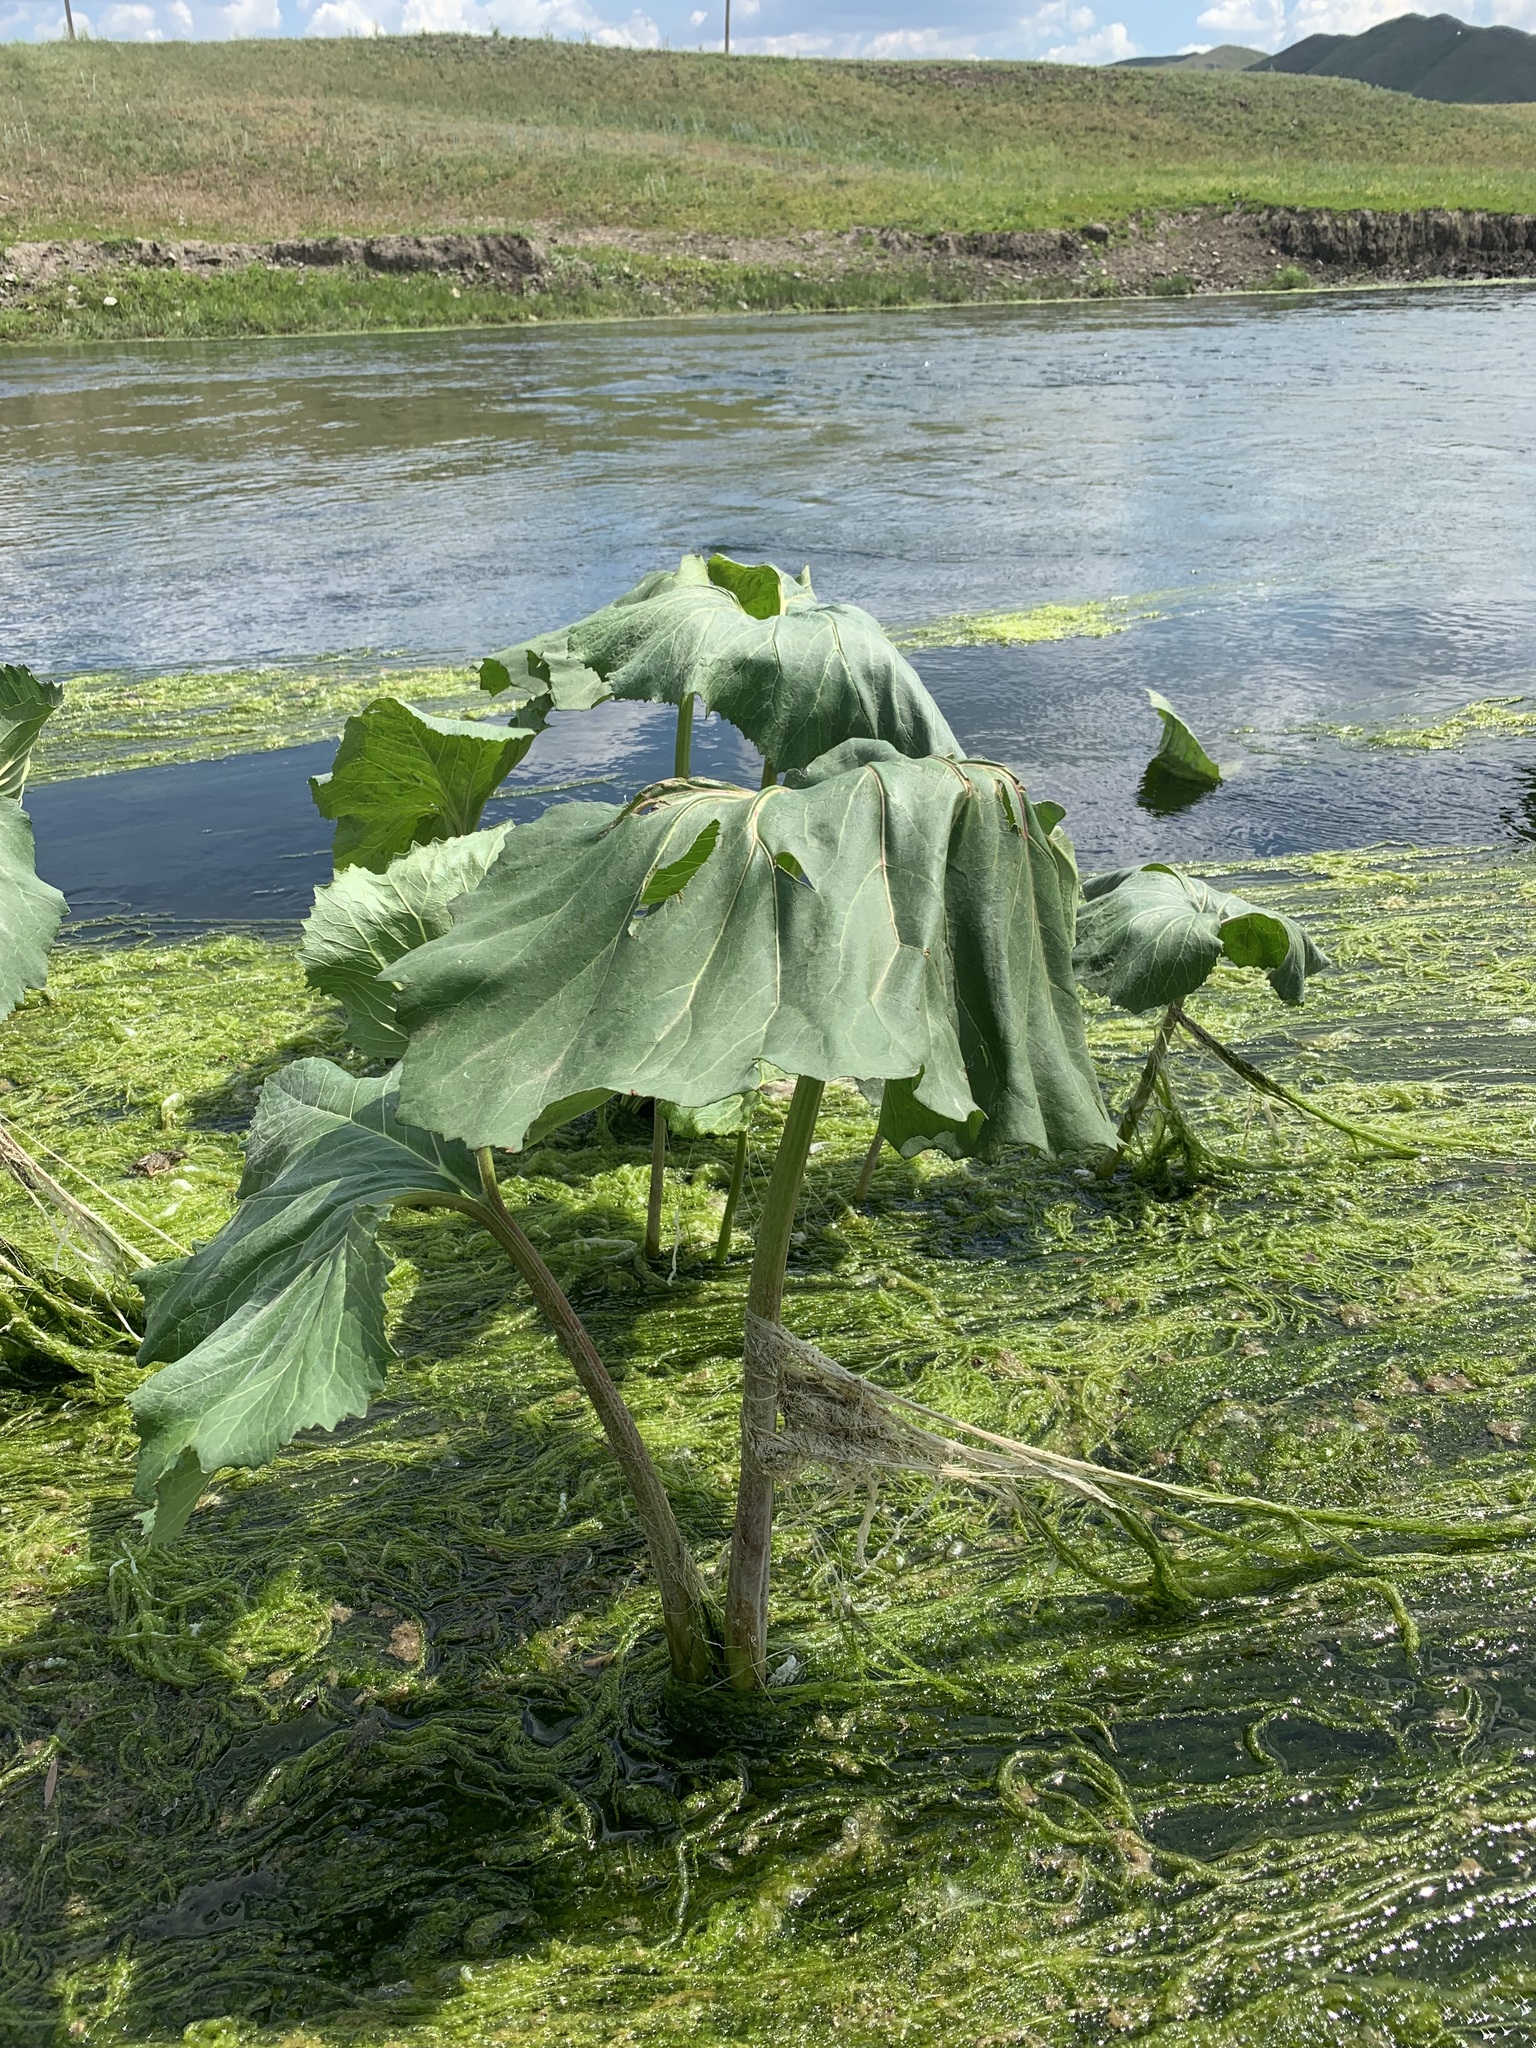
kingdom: Plantae
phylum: Tracheophyta
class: Magnoliopsida
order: Asterales
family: Asteraceae
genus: Petasites
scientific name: Petasites radiatus
